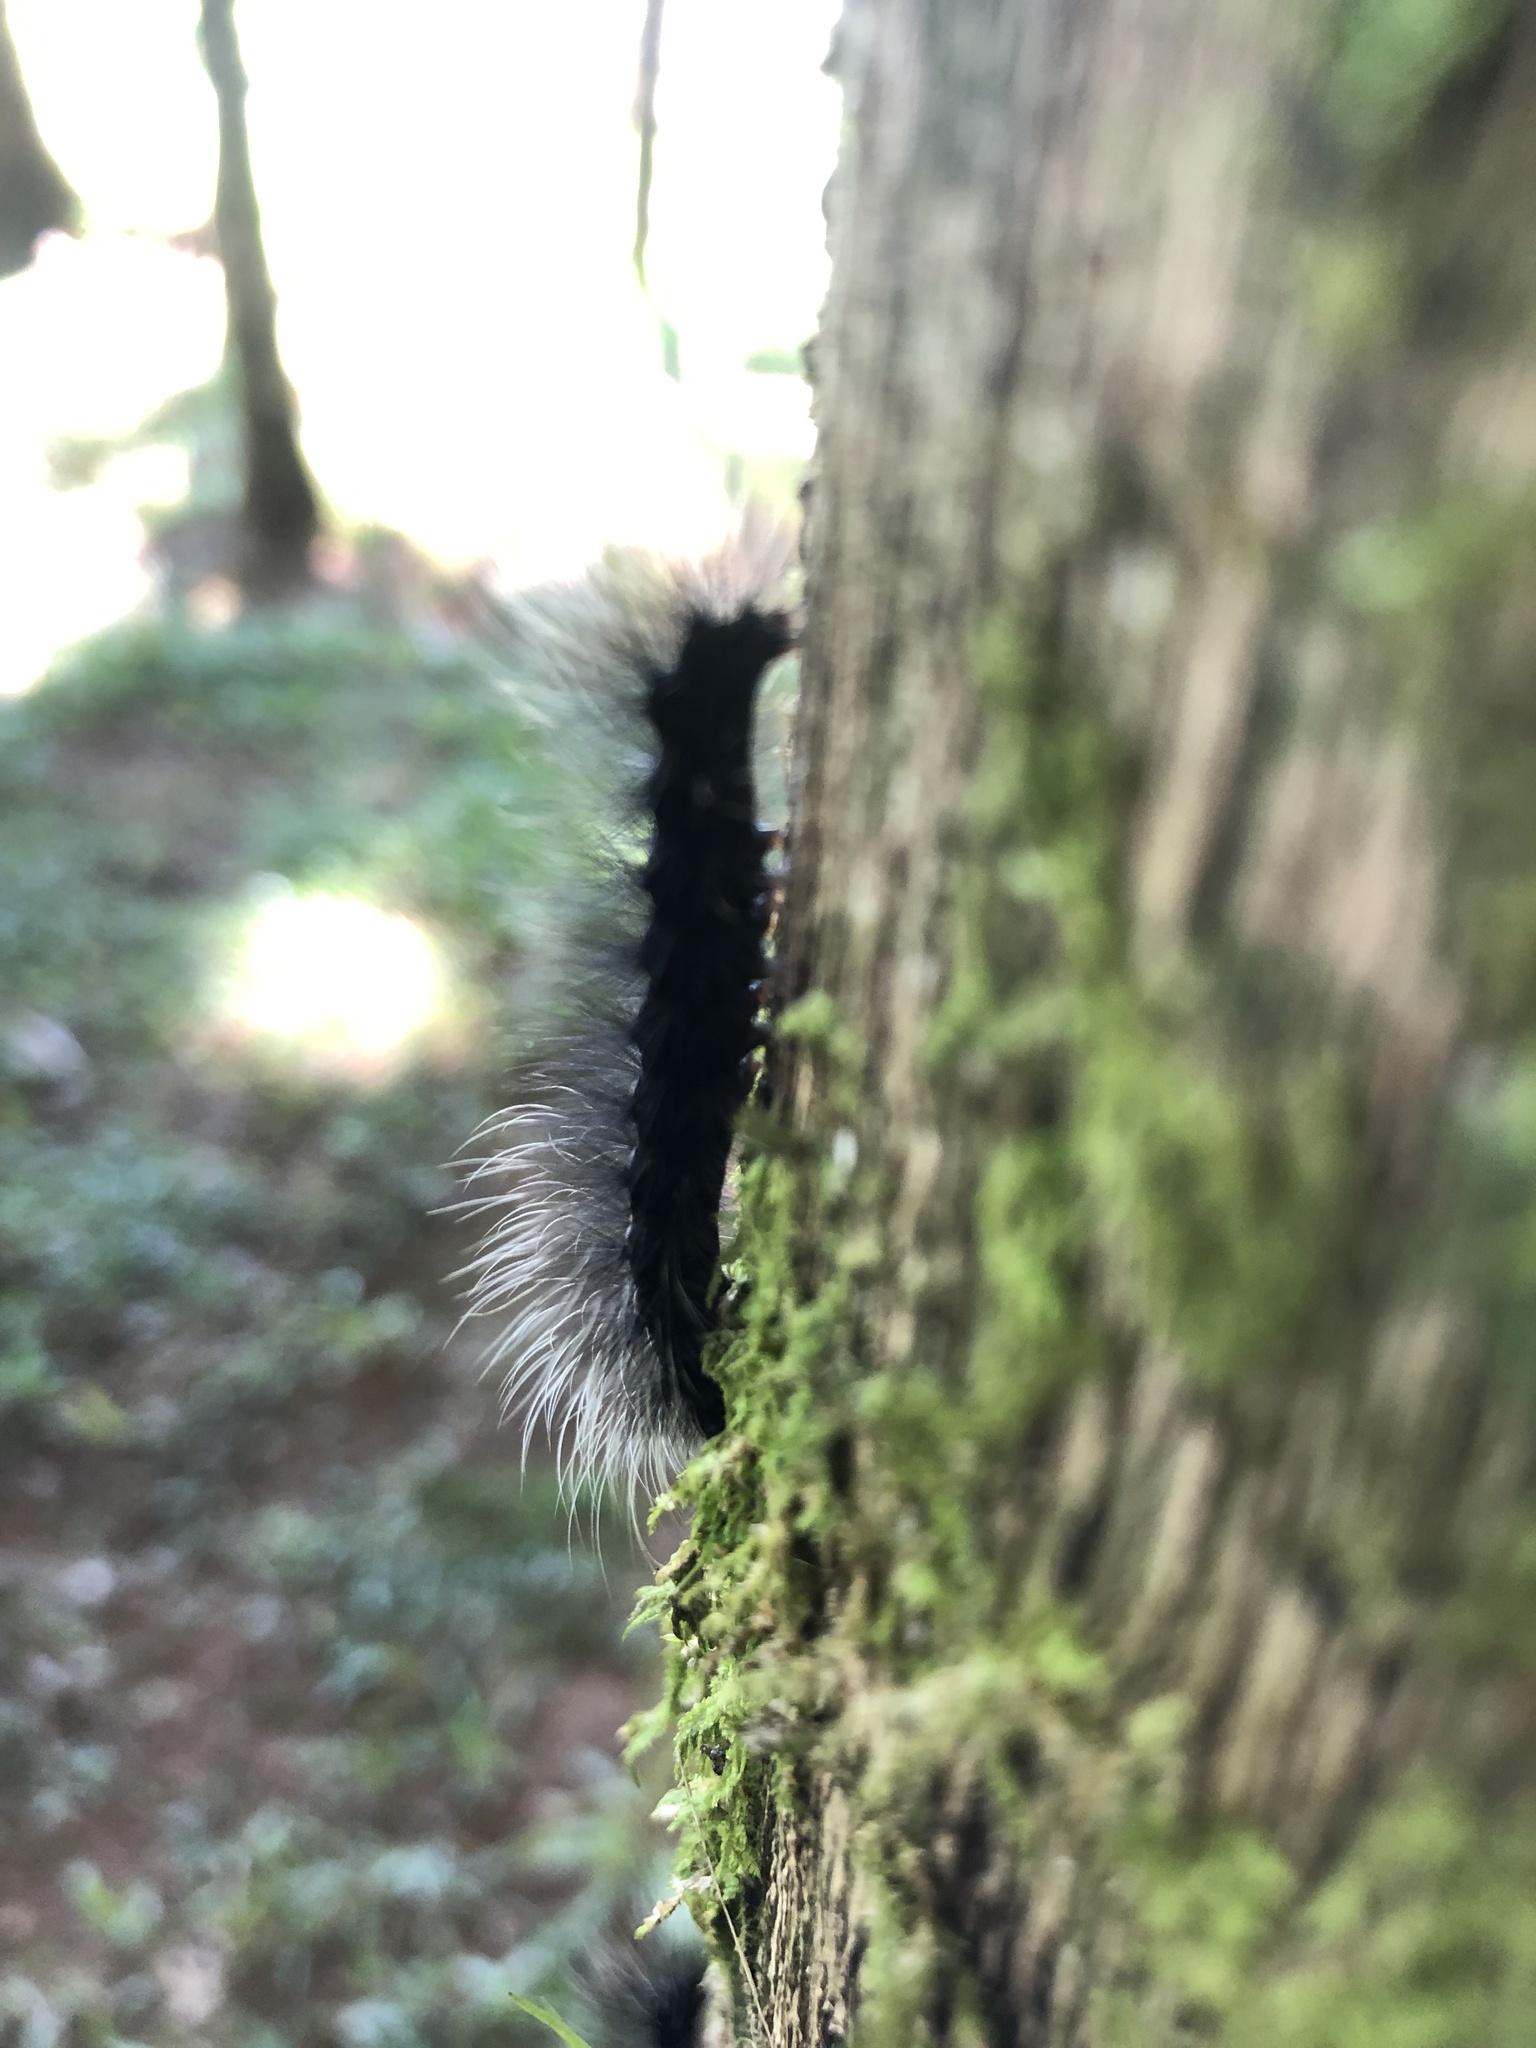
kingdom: Animalia
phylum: Arthropoda
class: Insecta
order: Lepidoptera
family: Erebidae
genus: Apistosia
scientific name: Apistosia judas
